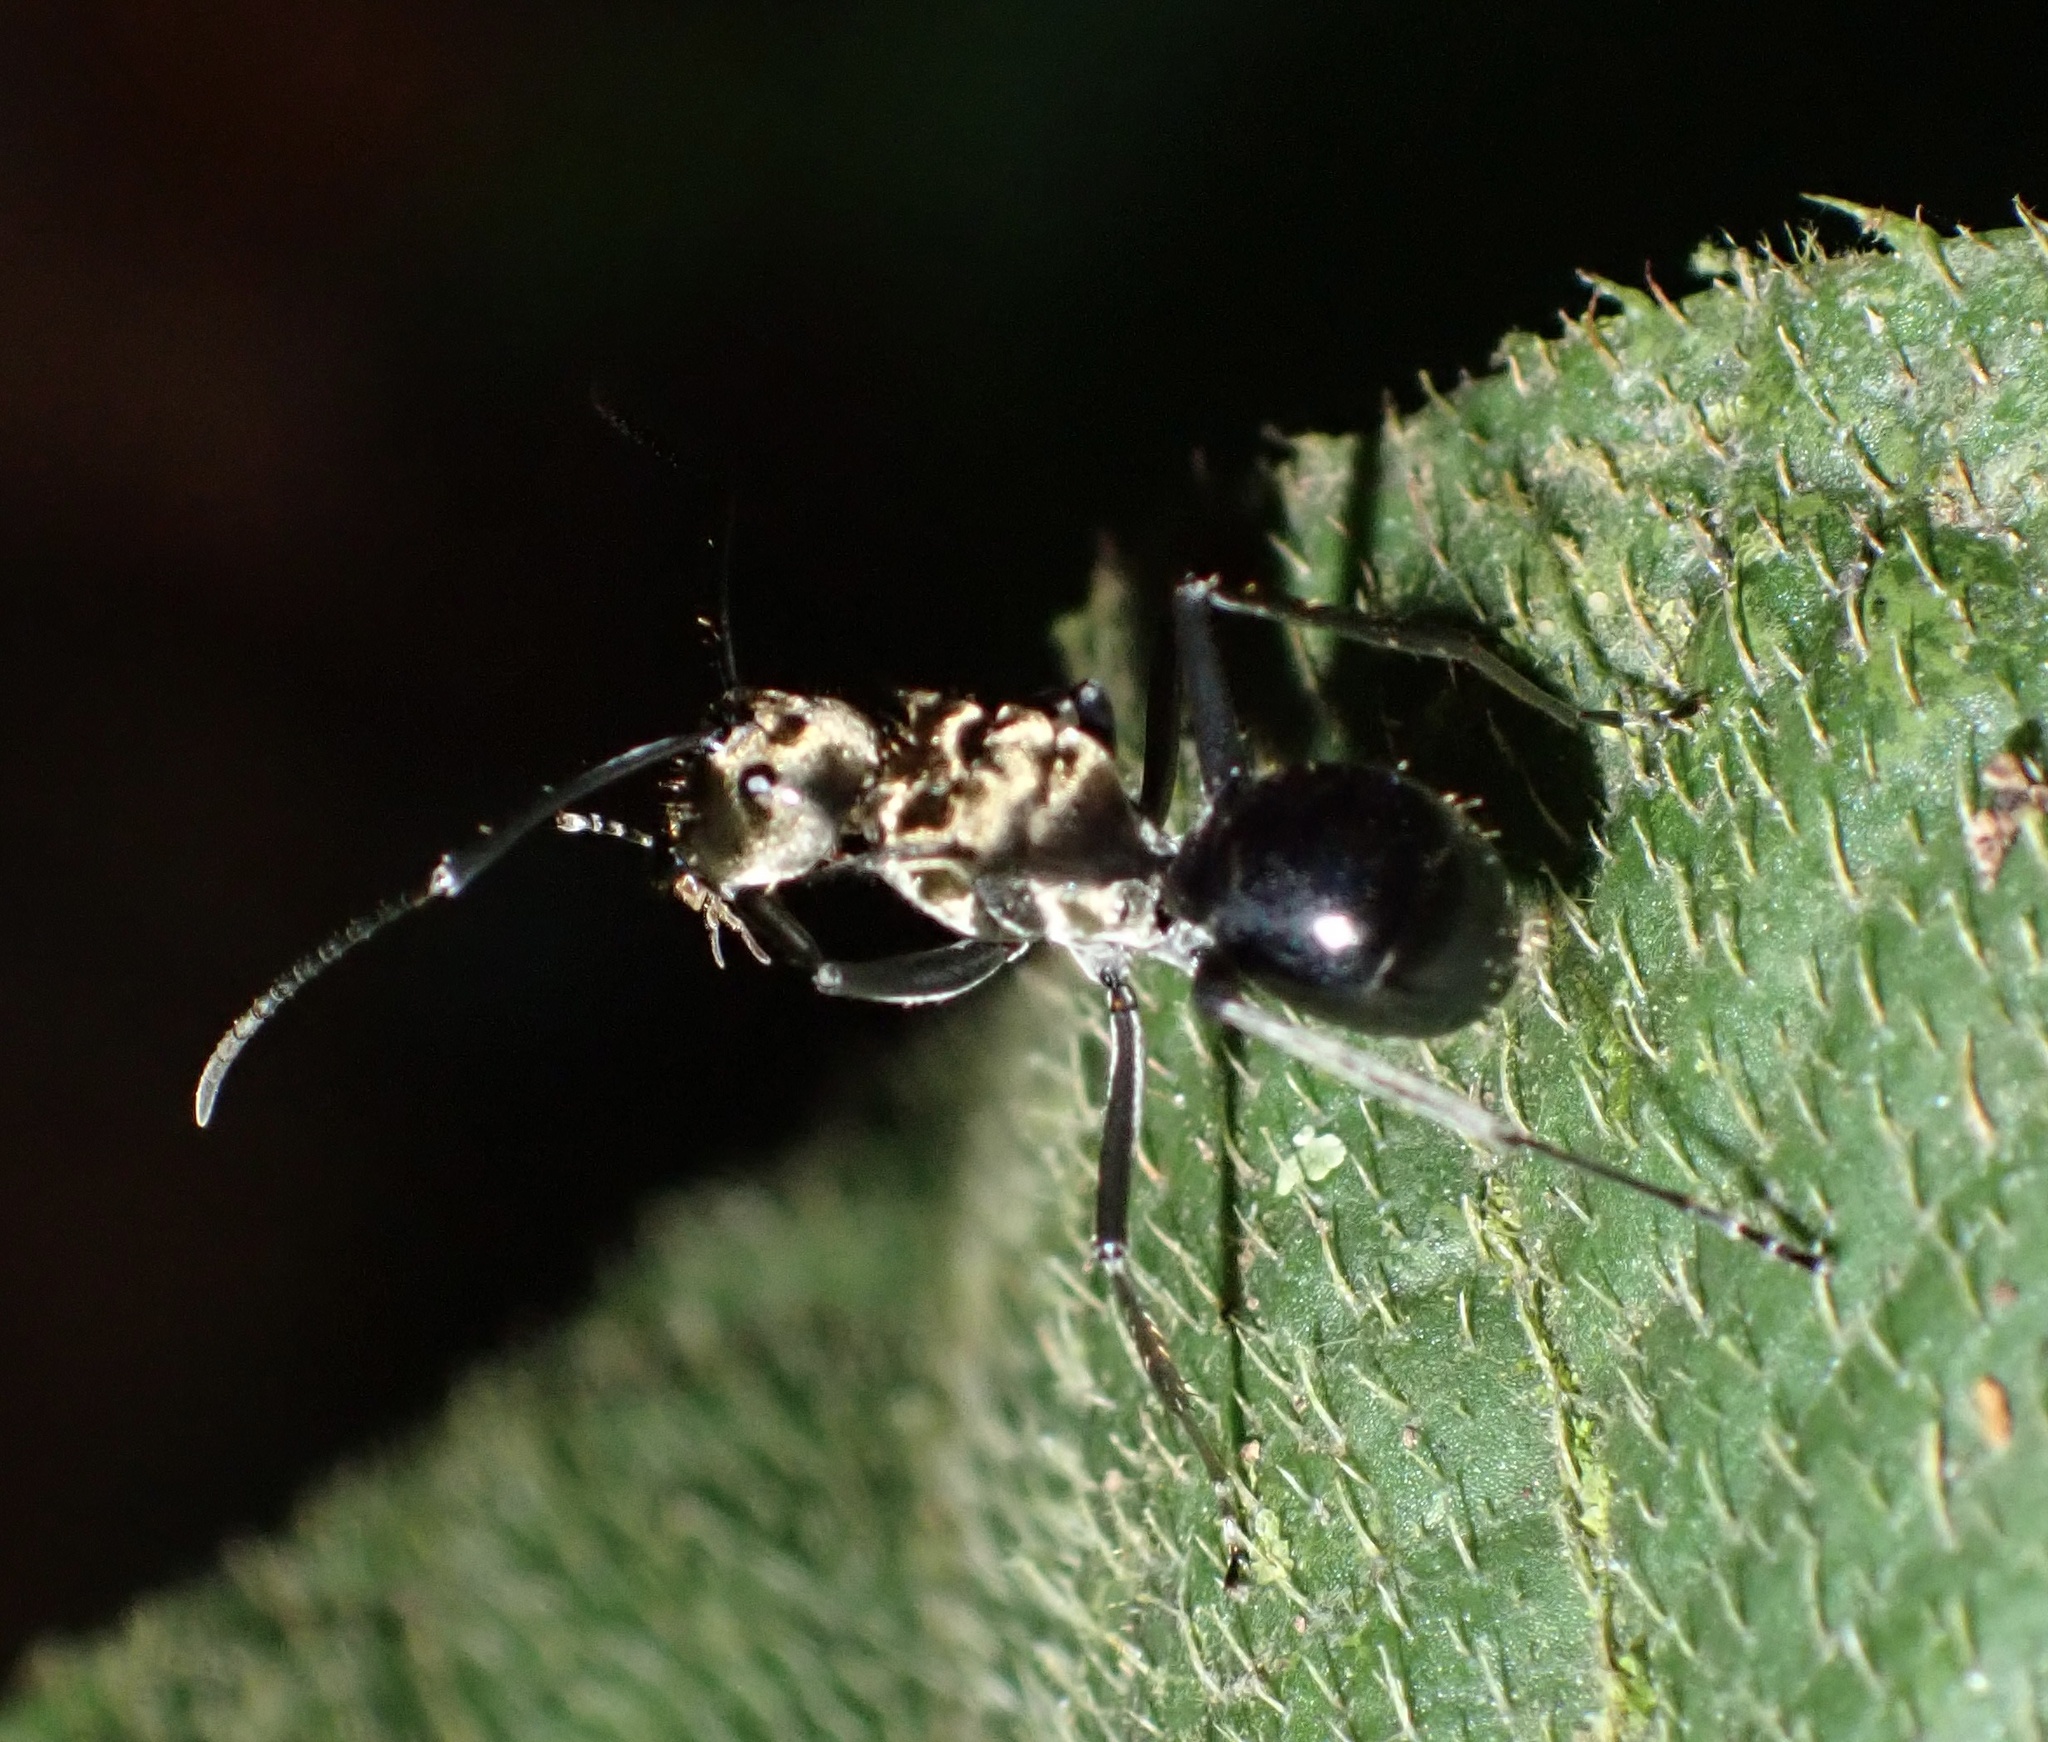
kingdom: Animalia
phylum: Arthropoda
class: Insecta
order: Hymenoptera
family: Formicidae
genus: Polyrhachis
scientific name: Polyrhachis sericata
